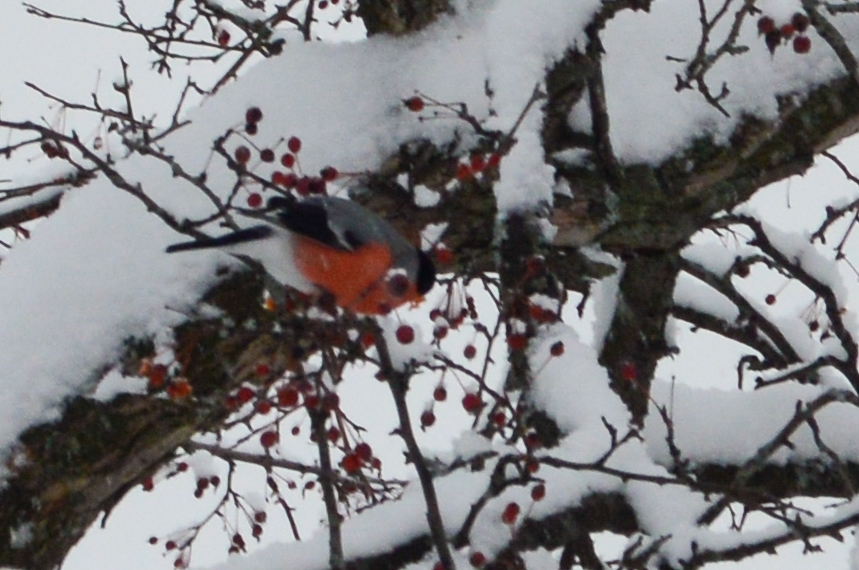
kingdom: Animalia
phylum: Chordata
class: Aves
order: Passeriformes
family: Fringillidae
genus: Pyrrhula
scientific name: Pyrrhula pyrrhula
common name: Eurasian bullfinch
